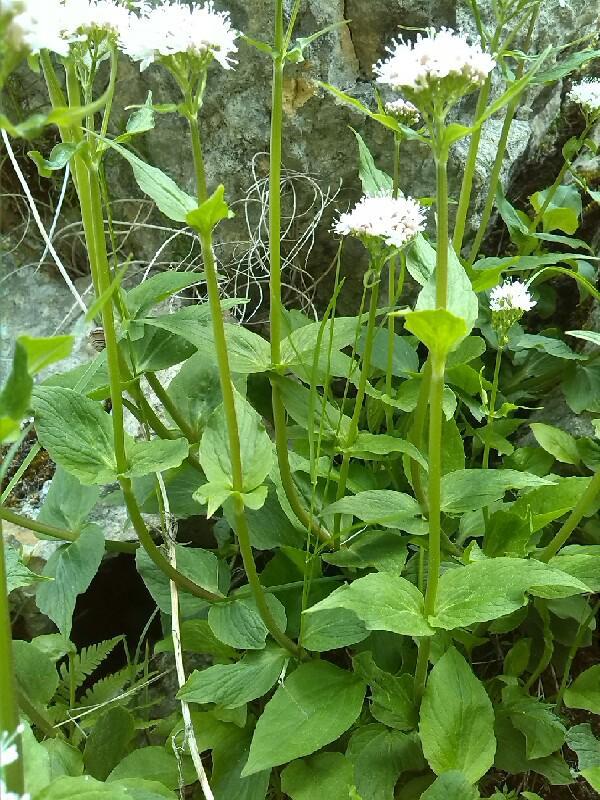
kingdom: Plantae
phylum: Tracheophyta
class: Magnoliopsida
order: Dipsacales
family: Caprifoliaceae
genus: Valeriana
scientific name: Valeriana montana
